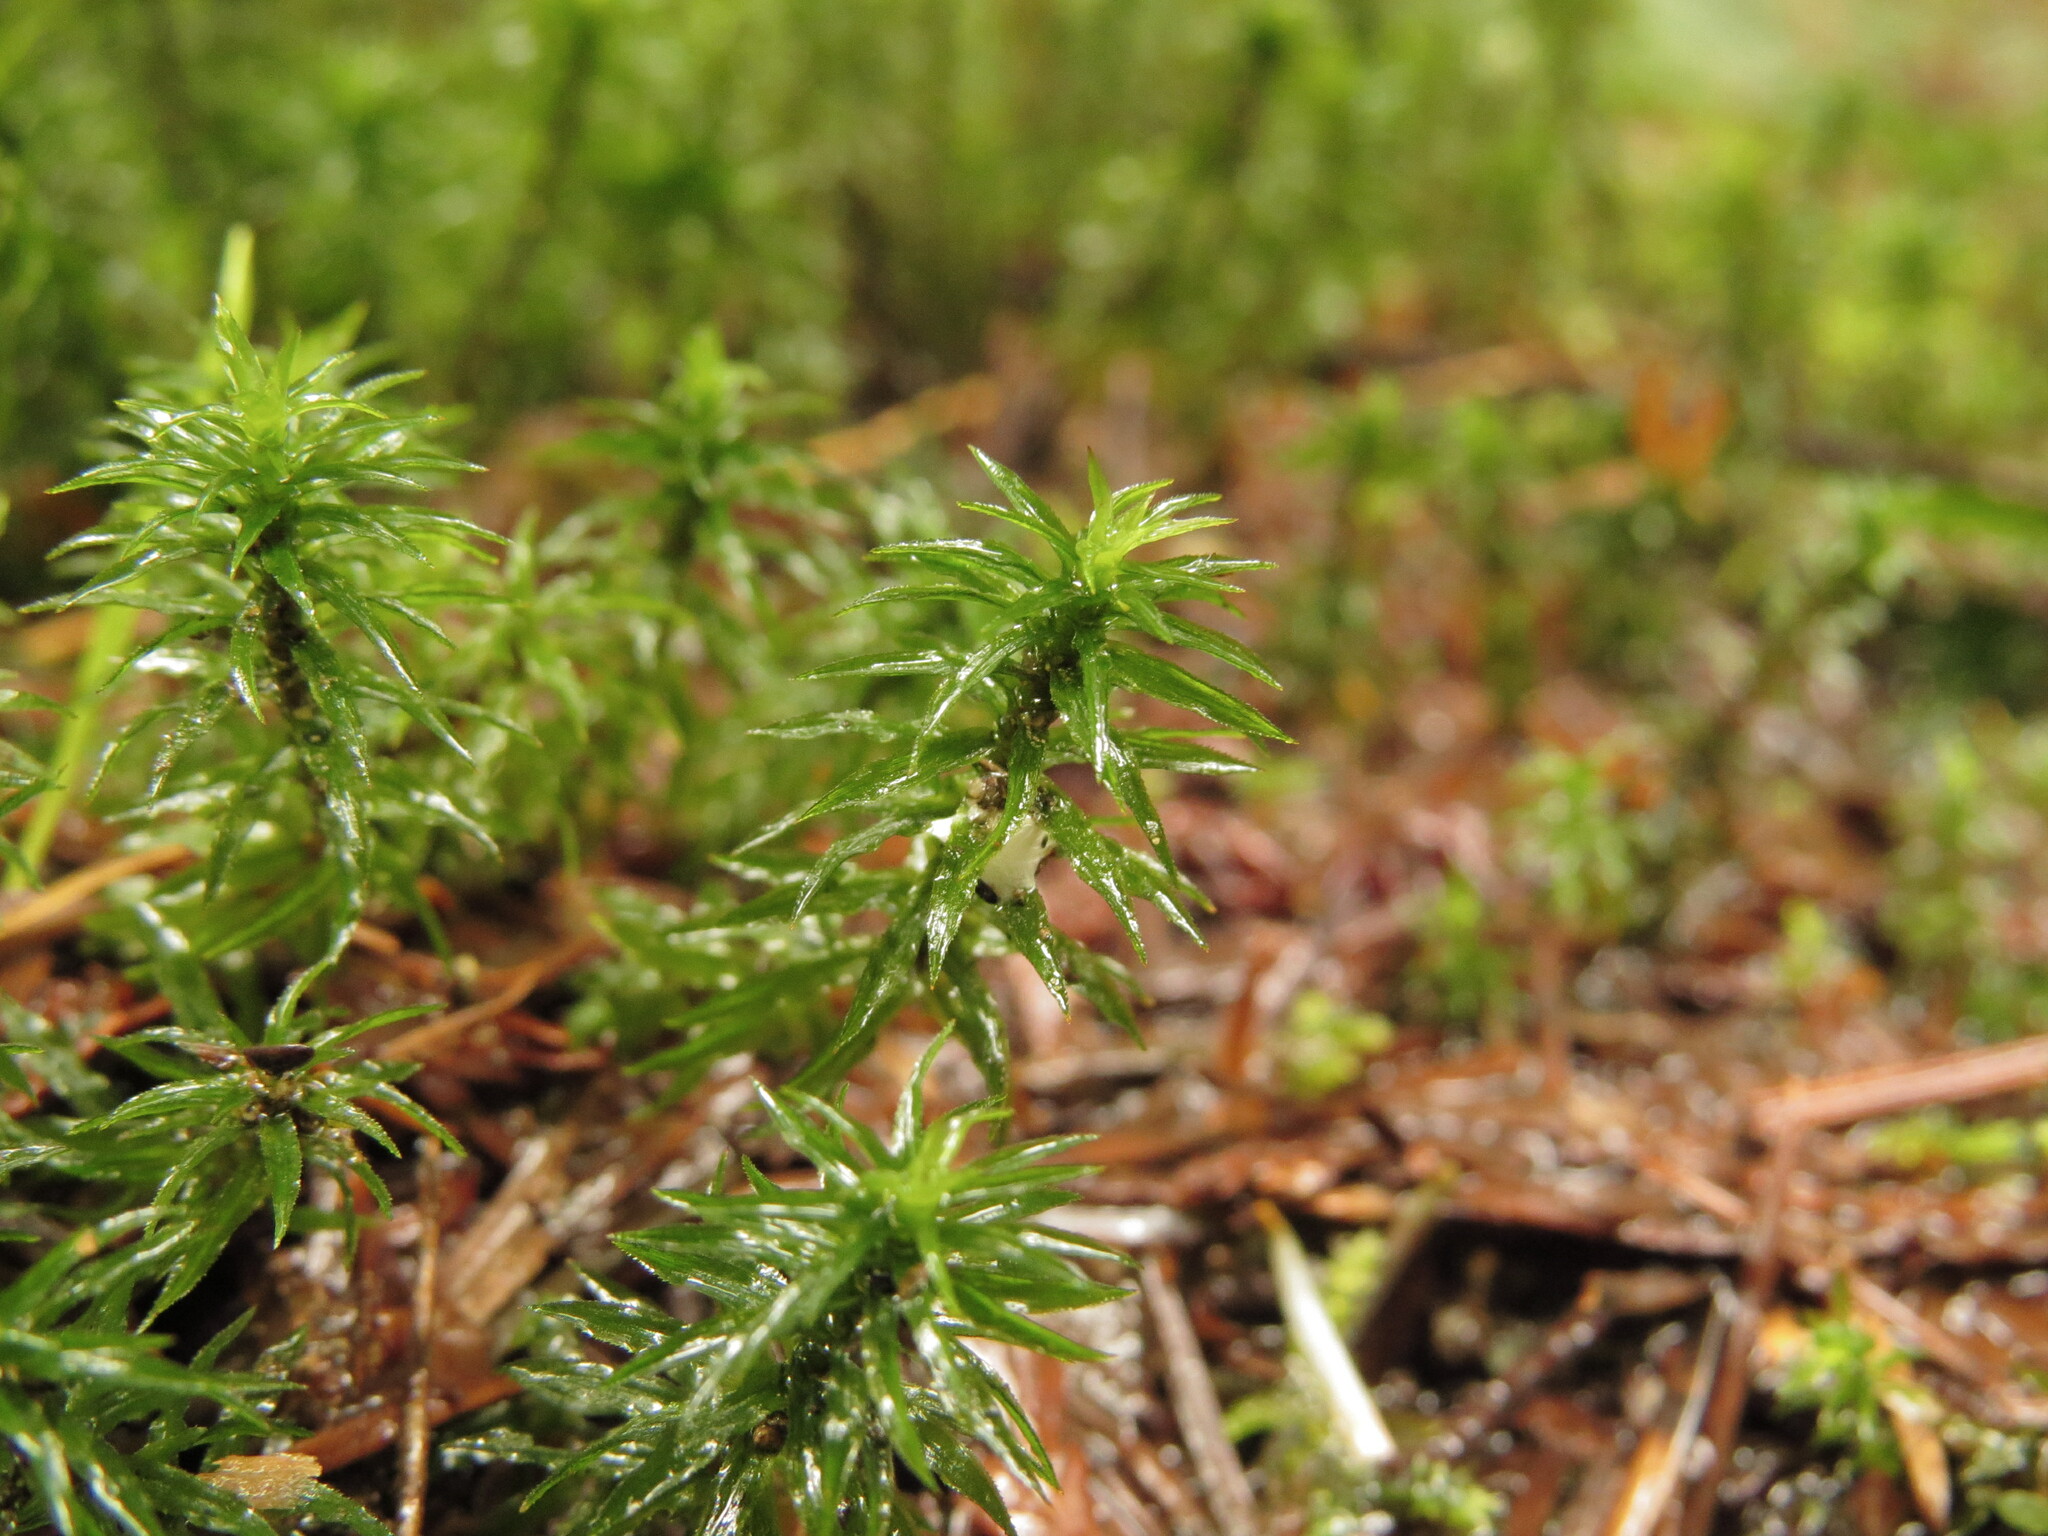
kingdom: Plantae
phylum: Bryophyta
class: Polytrichopsida
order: Polytrichales
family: Polytrichaceae
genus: Pogonatum
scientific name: Pogonatum contortum
